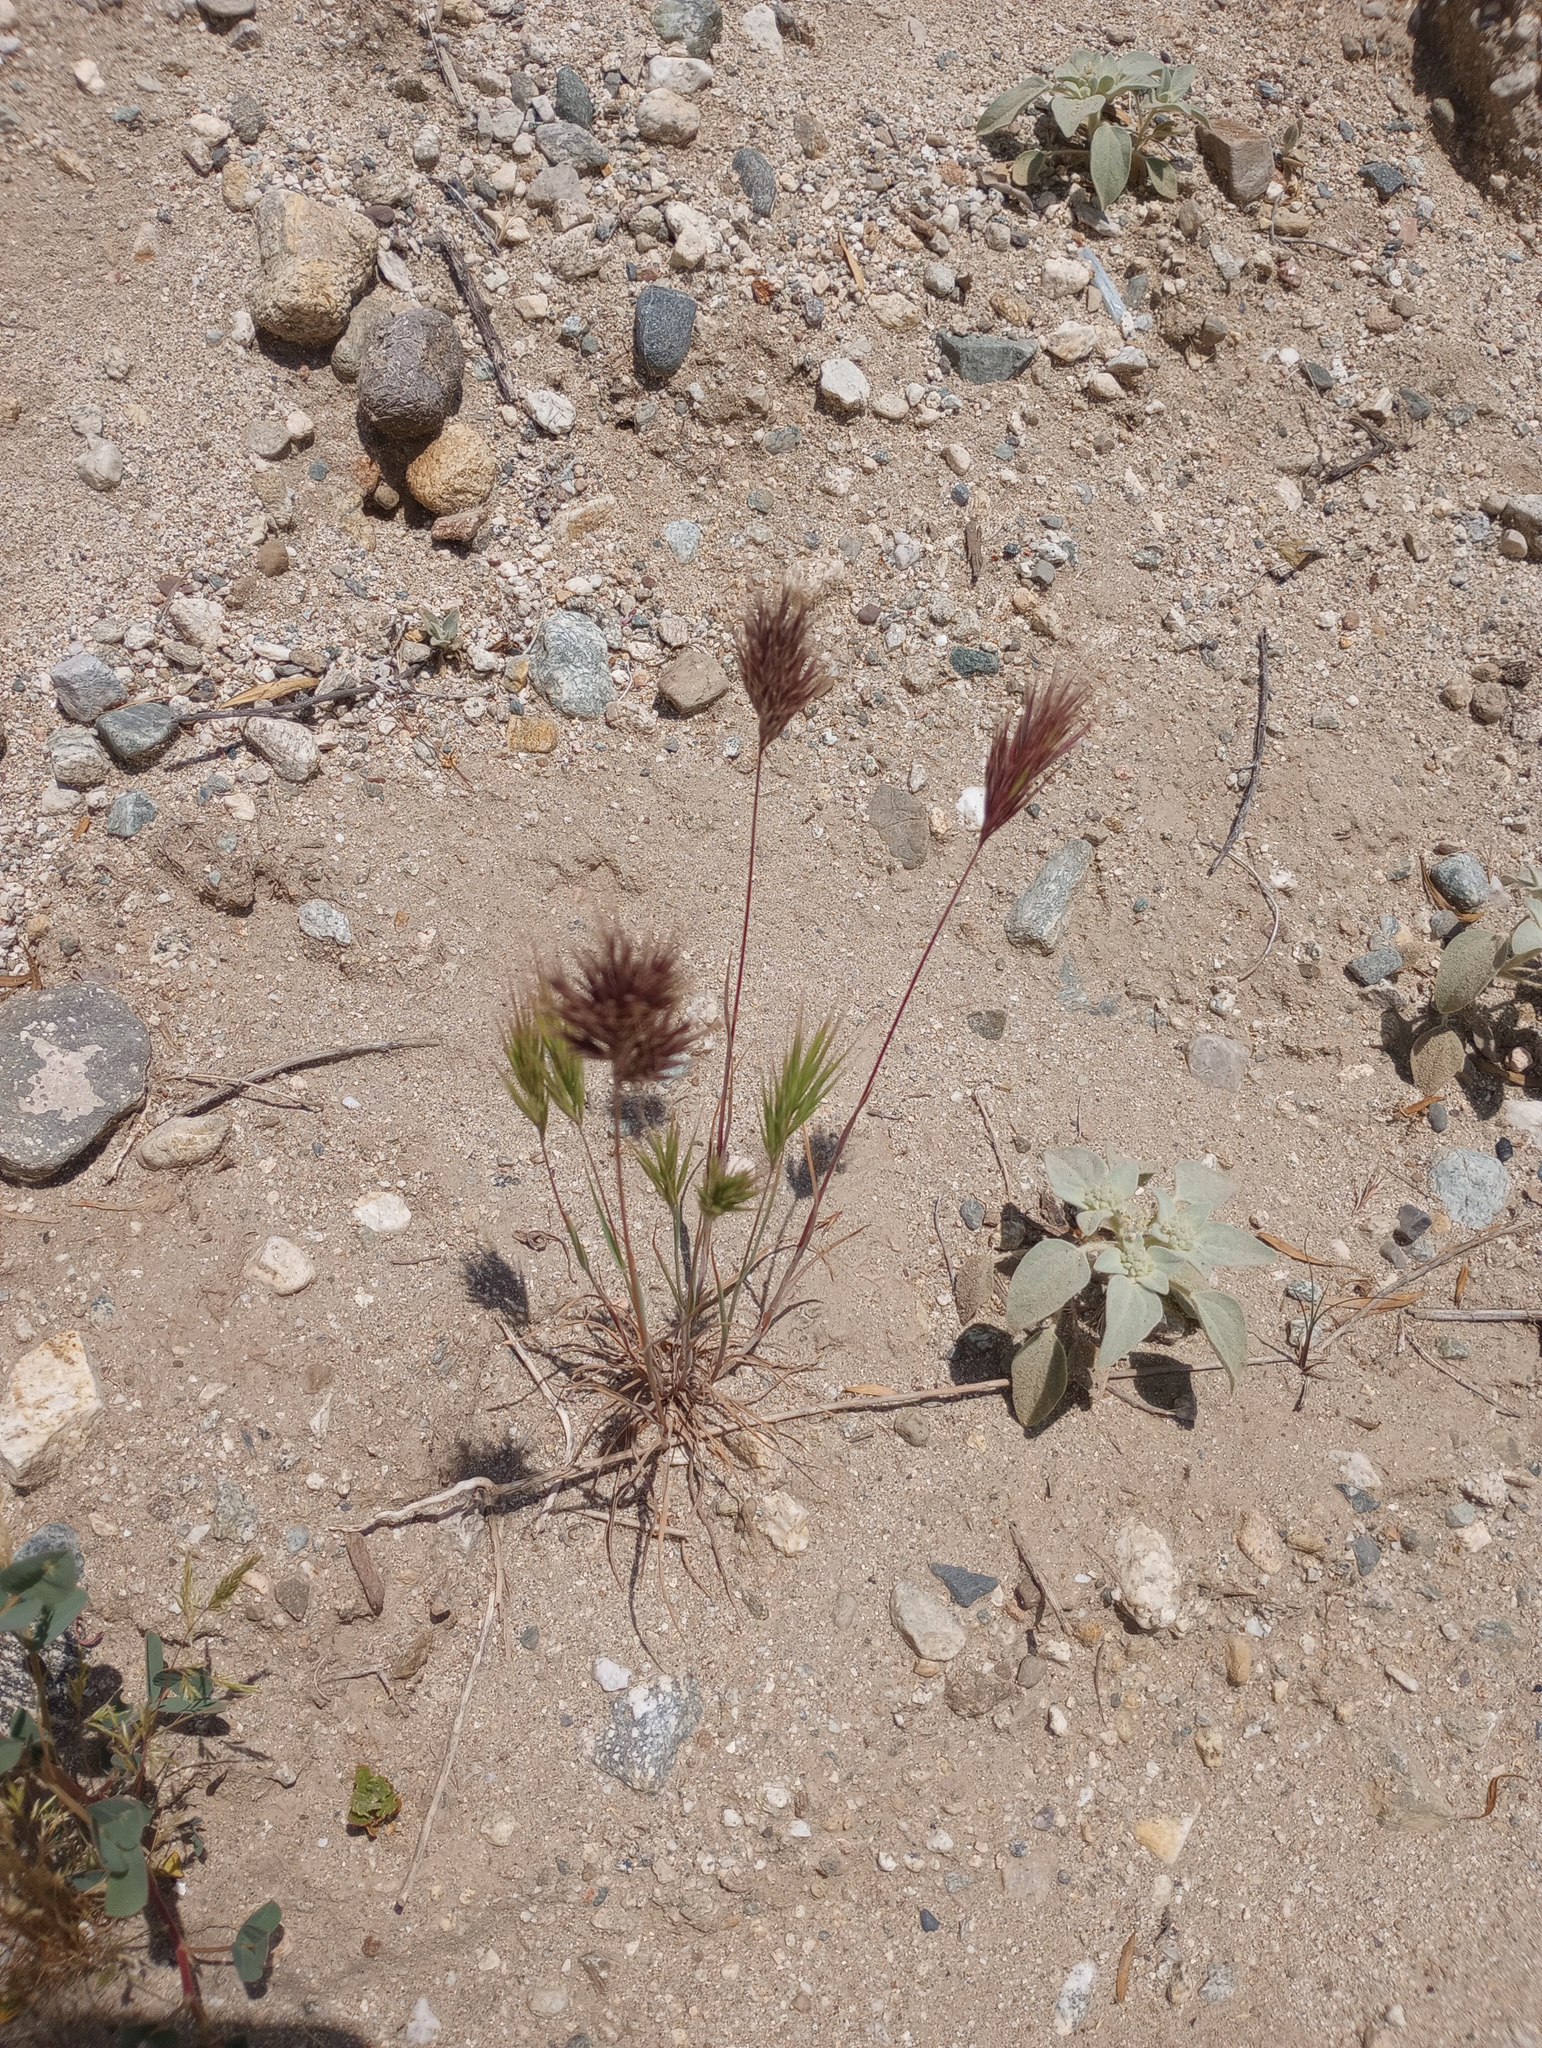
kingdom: Plantae
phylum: Tracheophyta
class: Liliopsida
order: Poales
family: Poaceae
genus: Bromus
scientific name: Bromus rubens
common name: Red brome
